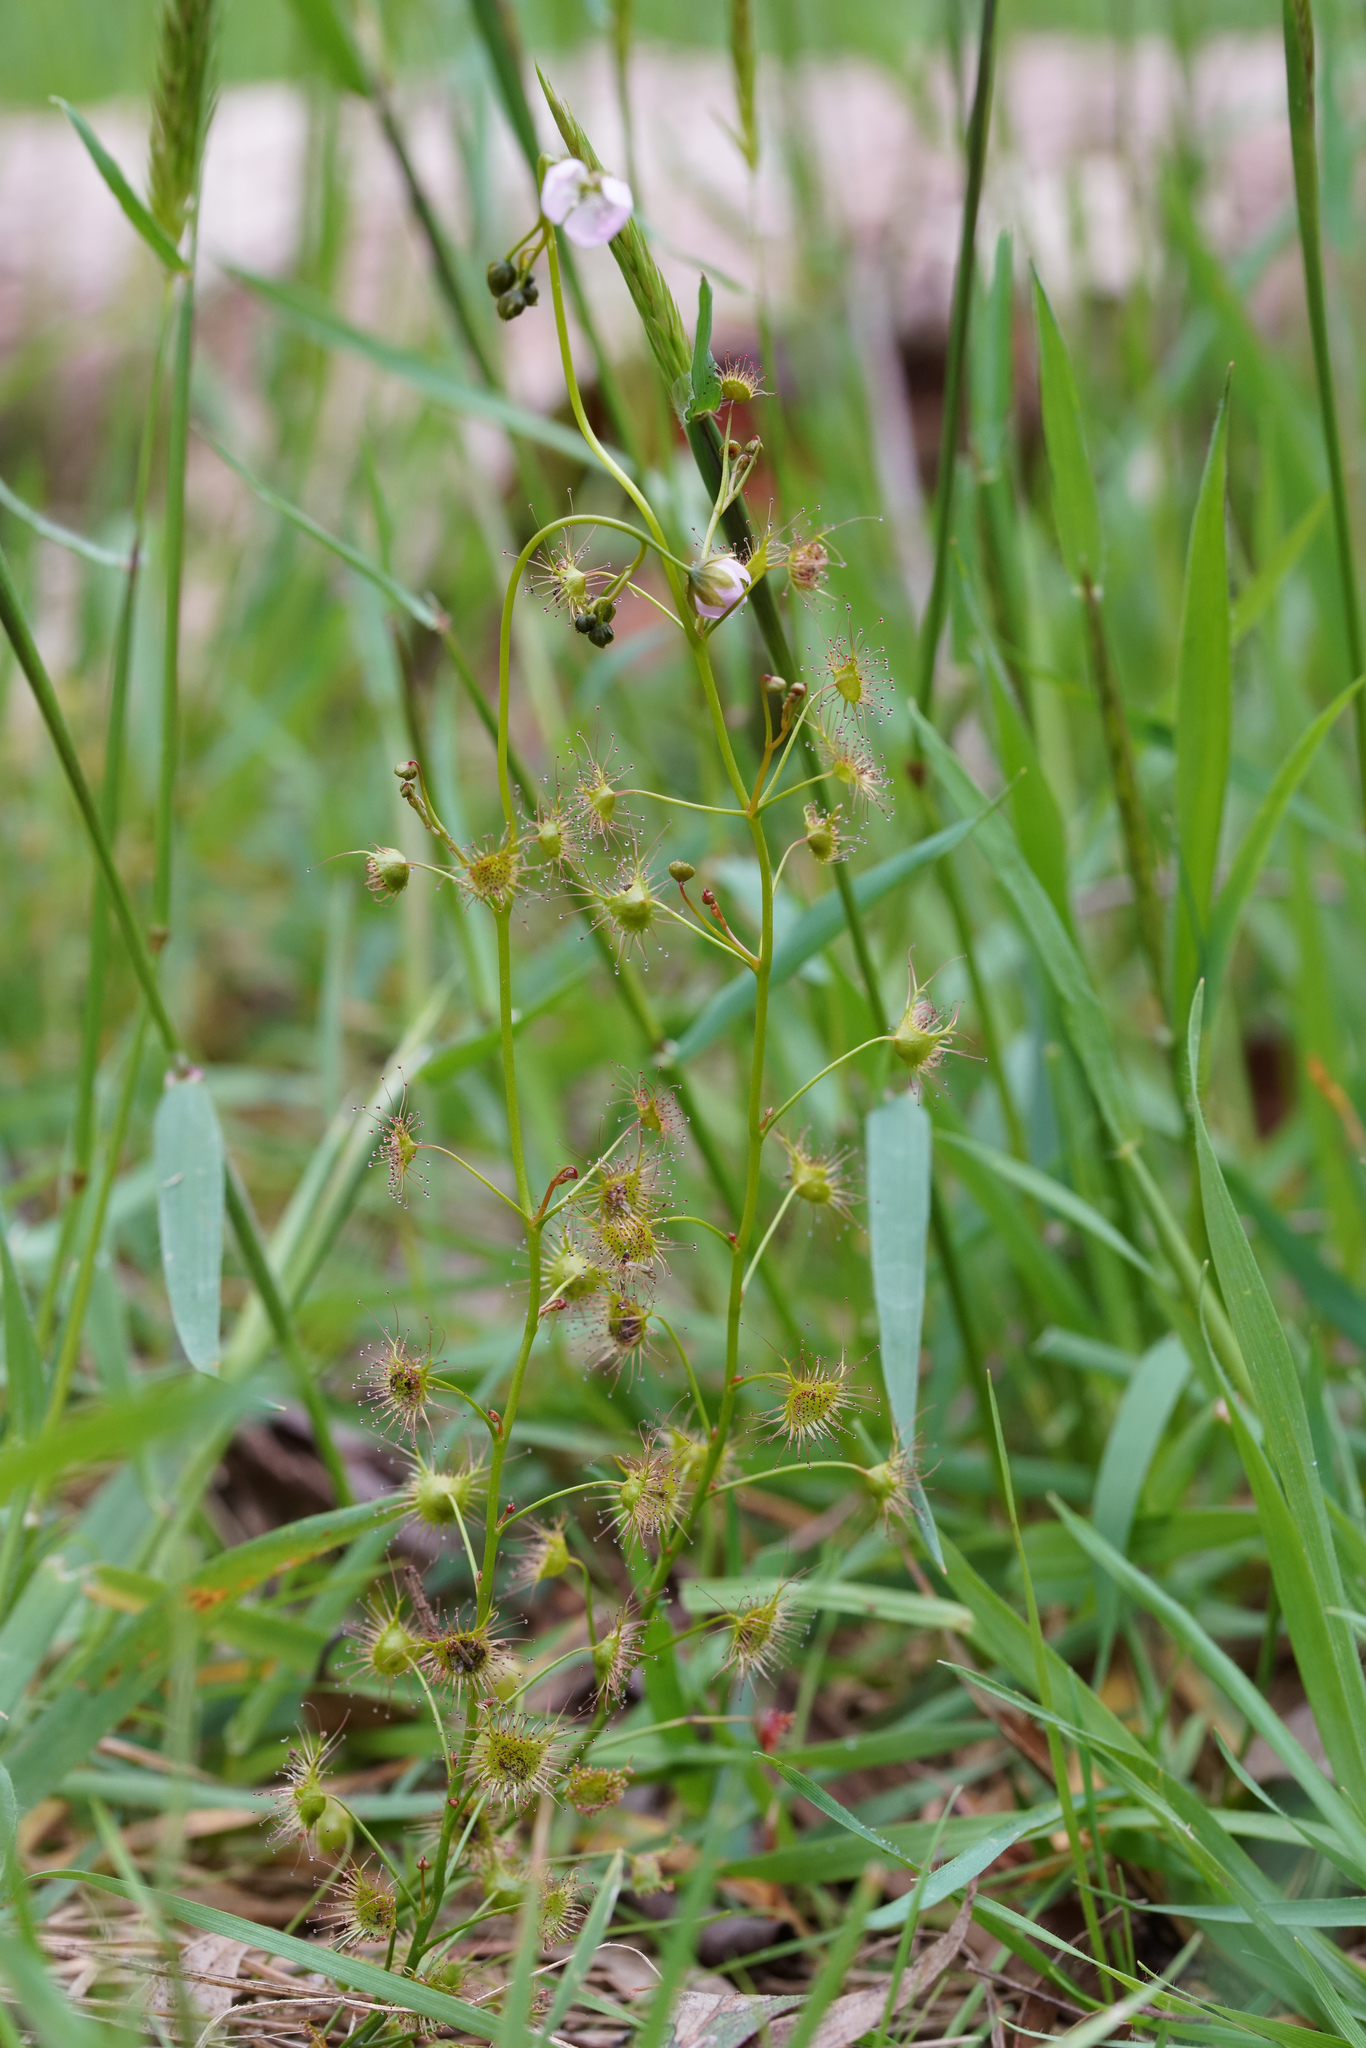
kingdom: Plantae
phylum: Tracheophyta
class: Magnoliopsida
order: Caryophyllales
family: Droseraceae
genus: Drosera
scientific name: Drosera peltata
